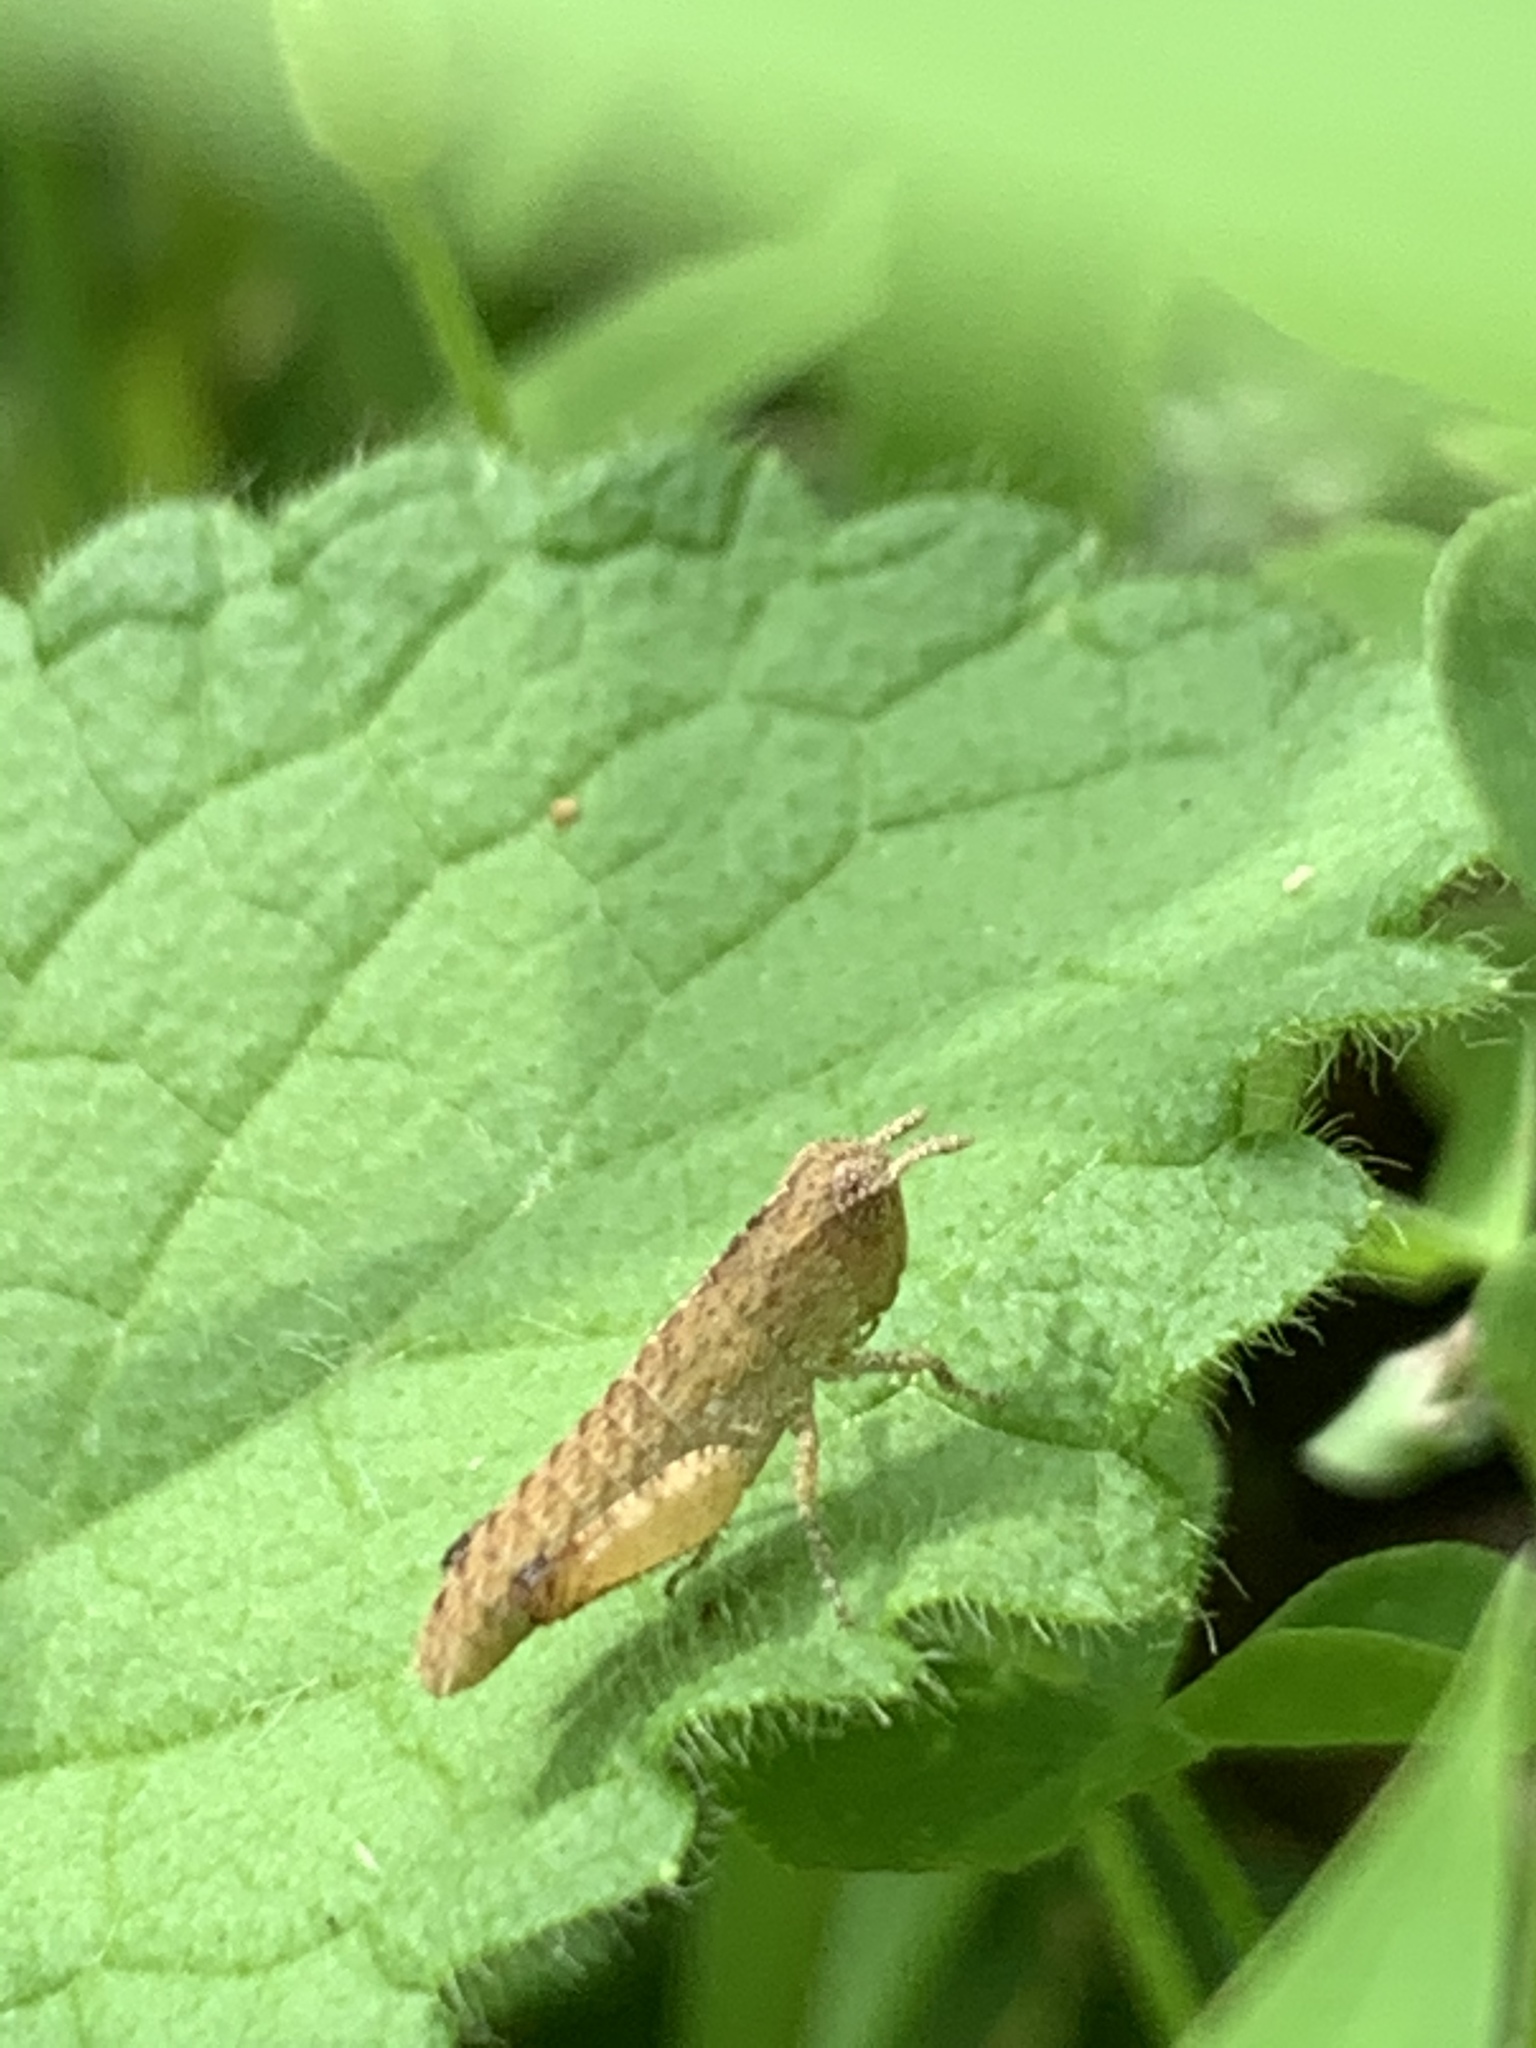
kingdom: Animalia
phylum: Arthropoda
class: Insecta
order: Orthoptera
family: Acrididae
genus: Chortophaga
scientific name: Chortophaga viridifasciata
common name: Green-striped grasshopper
